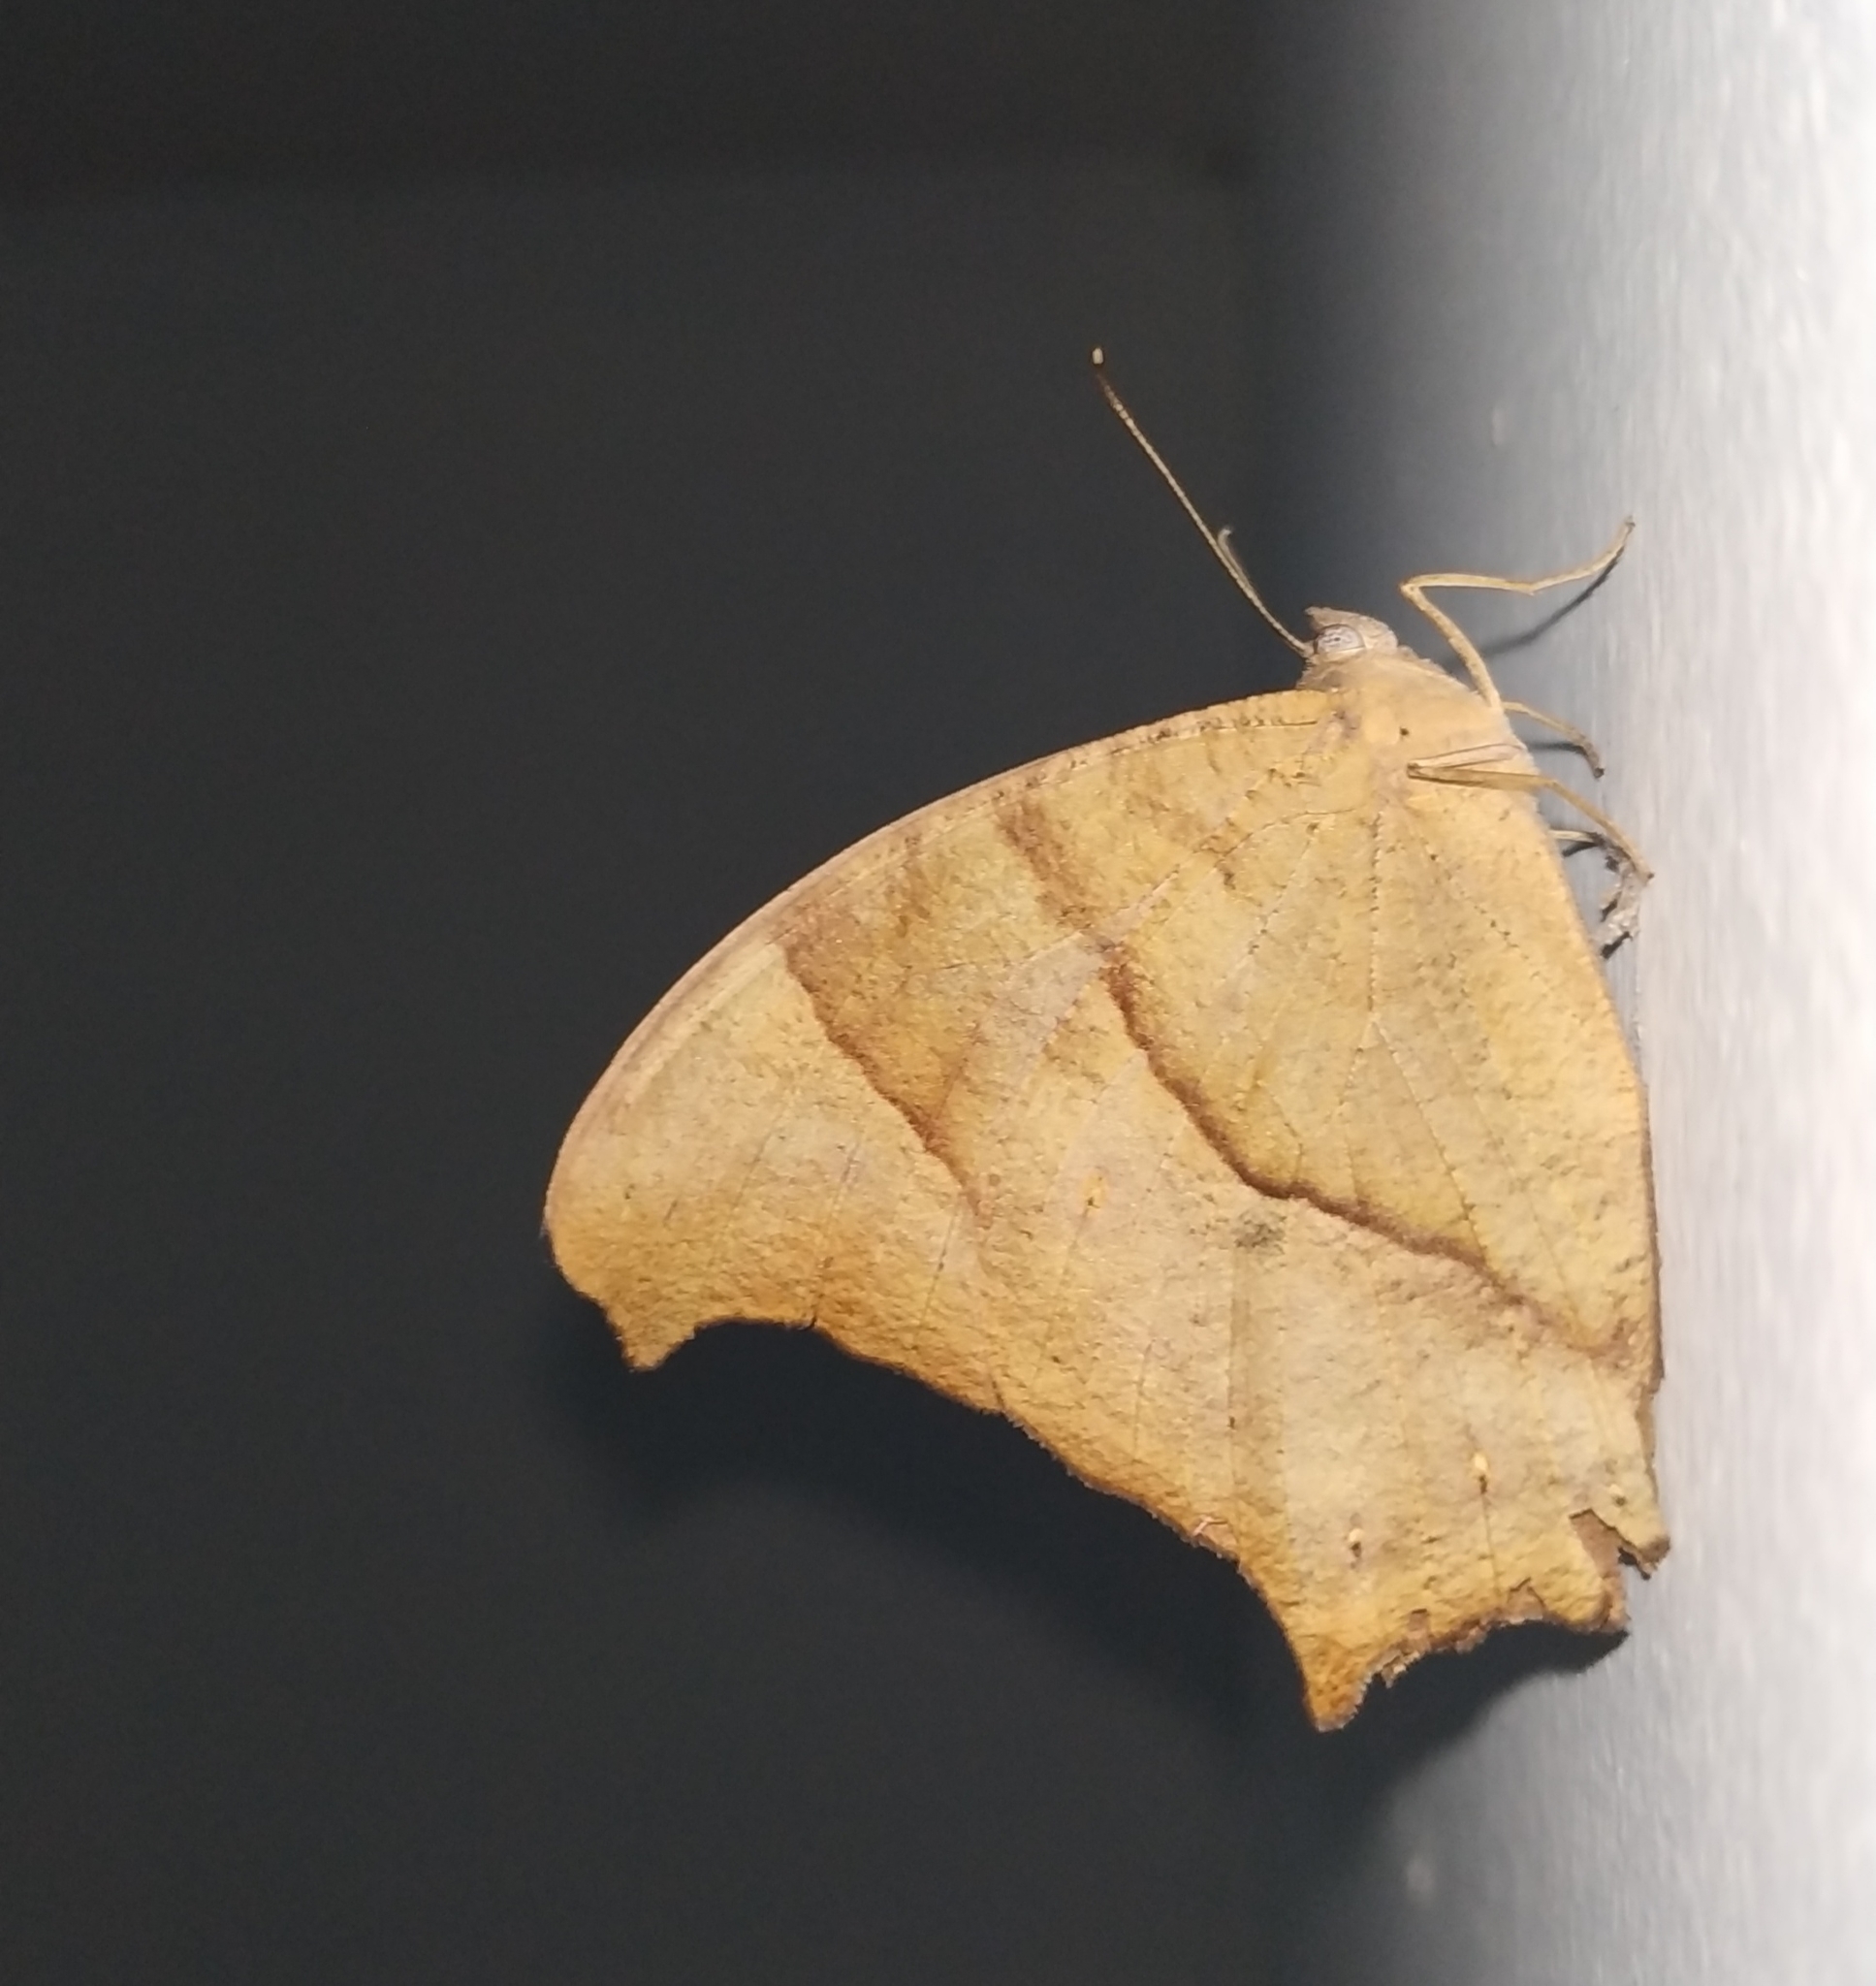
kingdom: Animalia
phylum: Arthropoda
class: Insecta
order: Lepidoptera
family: Nymphalidae
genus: Melanitis
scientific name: Melanitis leda
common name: Twilight brown
